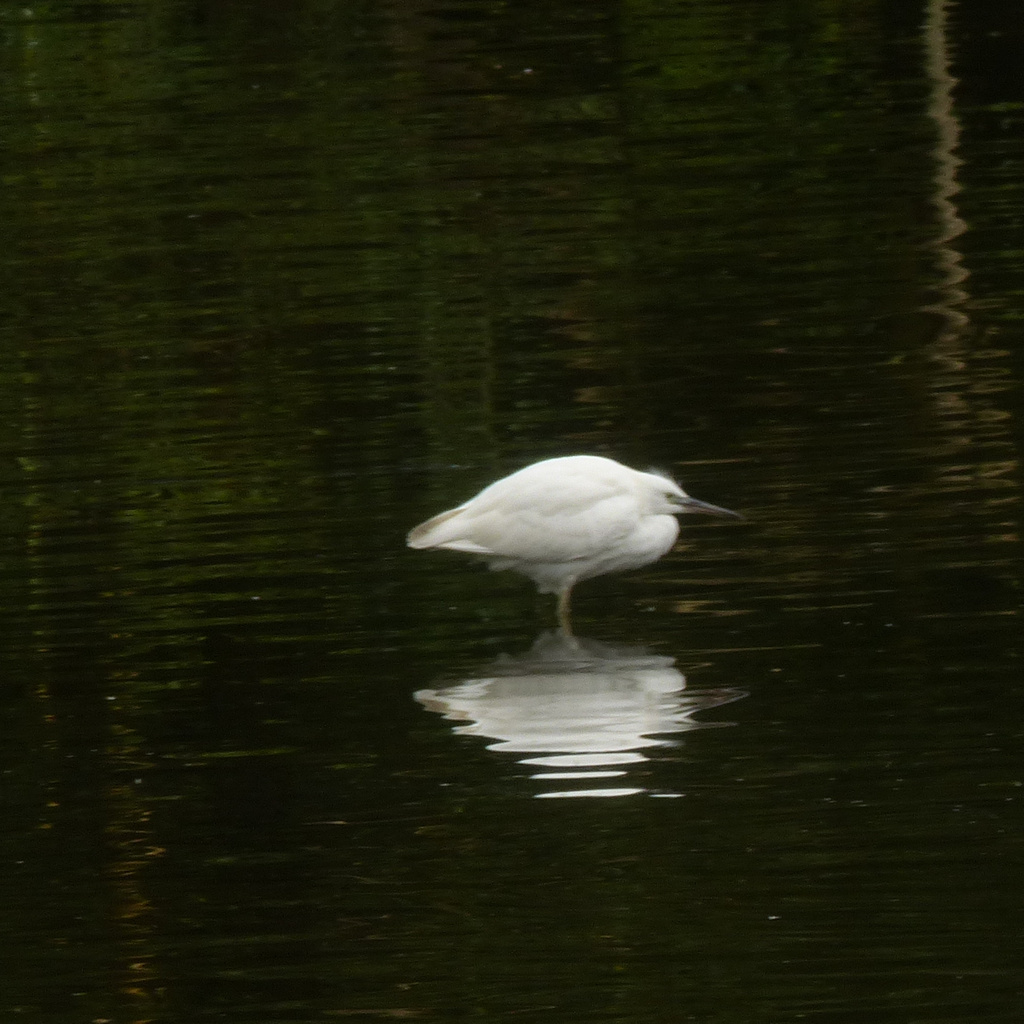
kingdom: Animalia
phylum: Chordata
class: Aves
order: Pelecaniformes
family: Ardeidae
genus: Egretta
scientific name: Egretta garzetta
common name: Little egret
